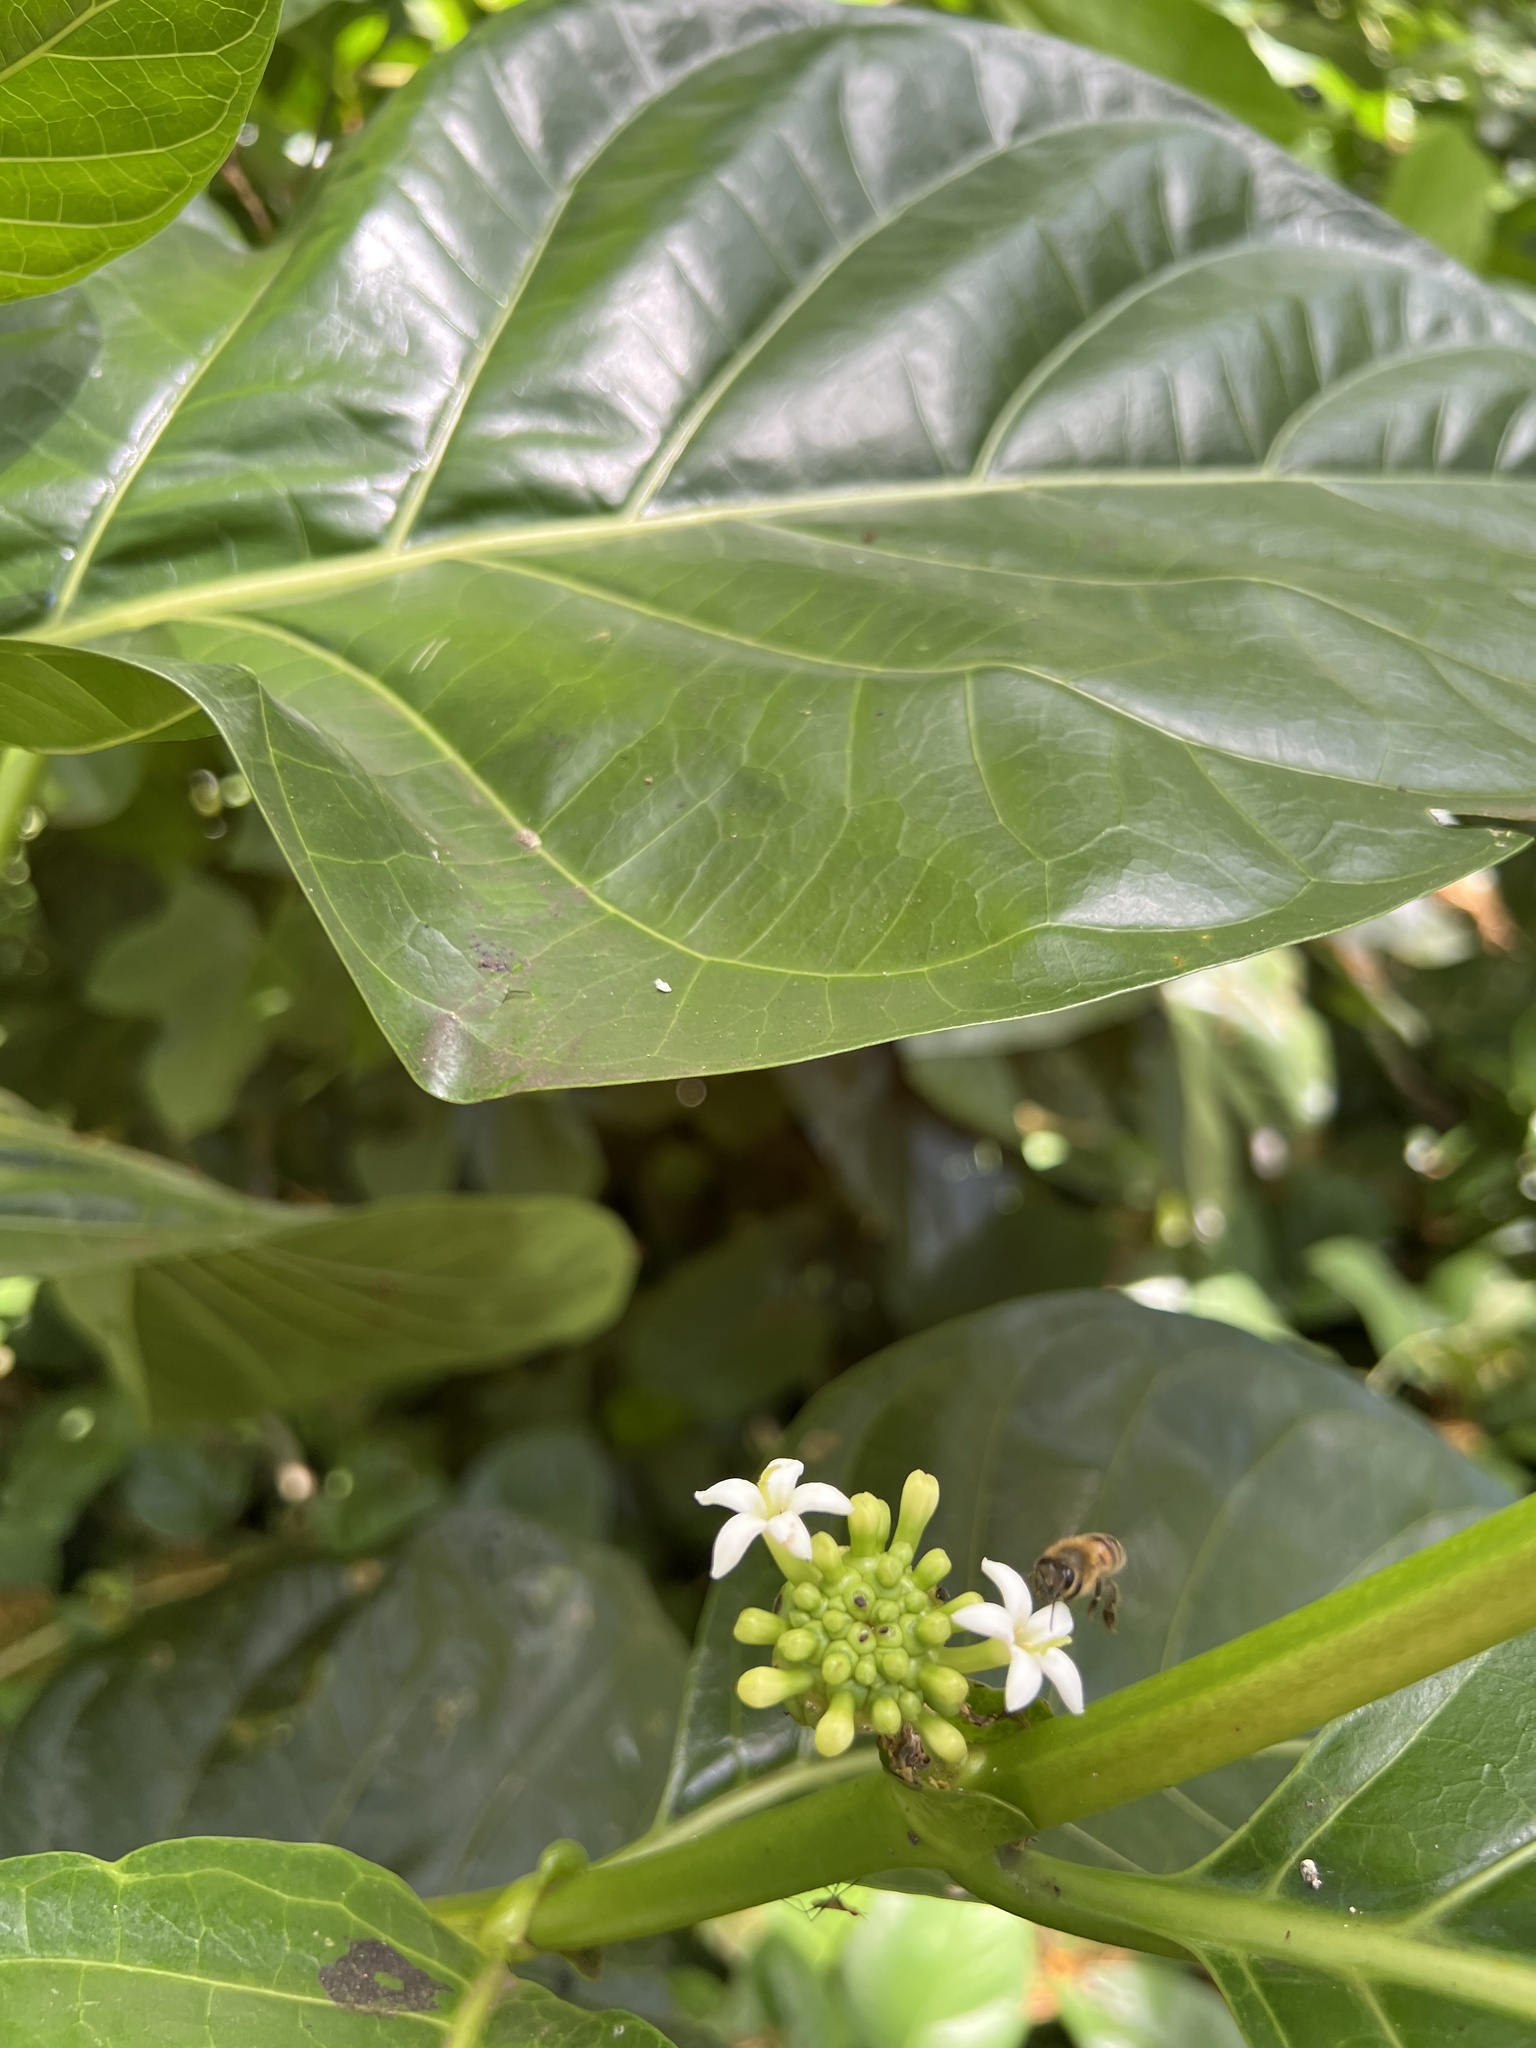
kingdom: Plantae
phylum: Tracheophyta
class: Magnoliopsida
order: Gentianales
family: Rubiaceae
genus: Morinda
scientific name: Morinda citrifolia
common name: Indian-mulberry
